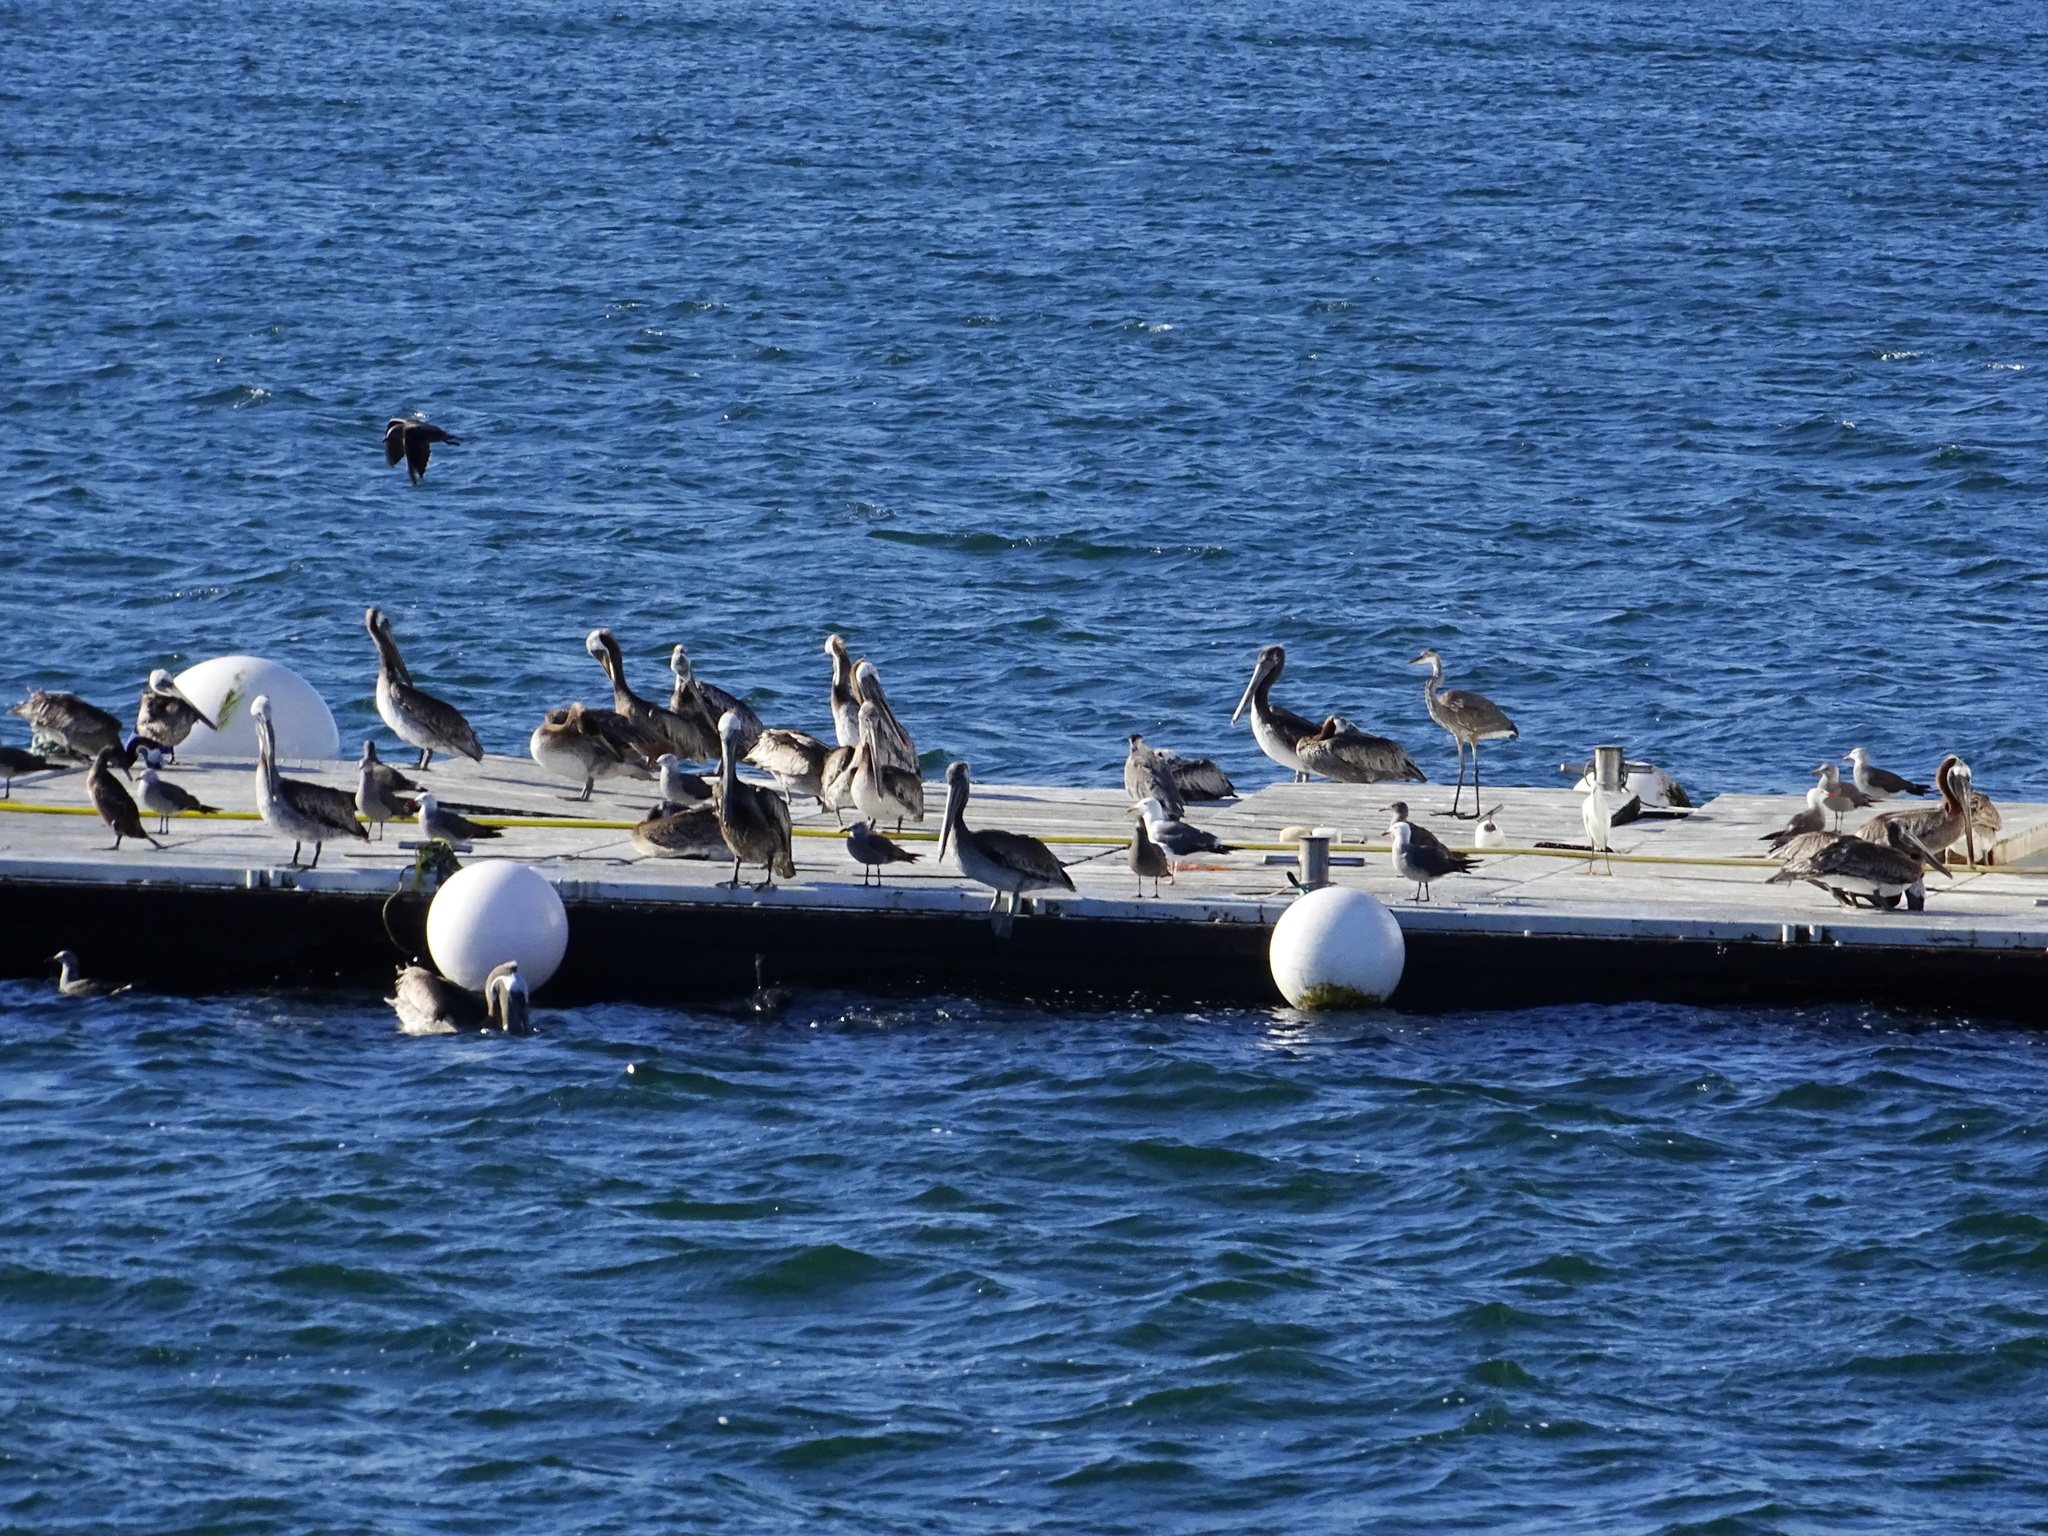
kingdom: Animalia
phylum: Chordata
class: Aves
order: Charadriiformes
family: Laridae
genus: Larus
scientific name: Larus heermanni
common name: Heermann's gull
